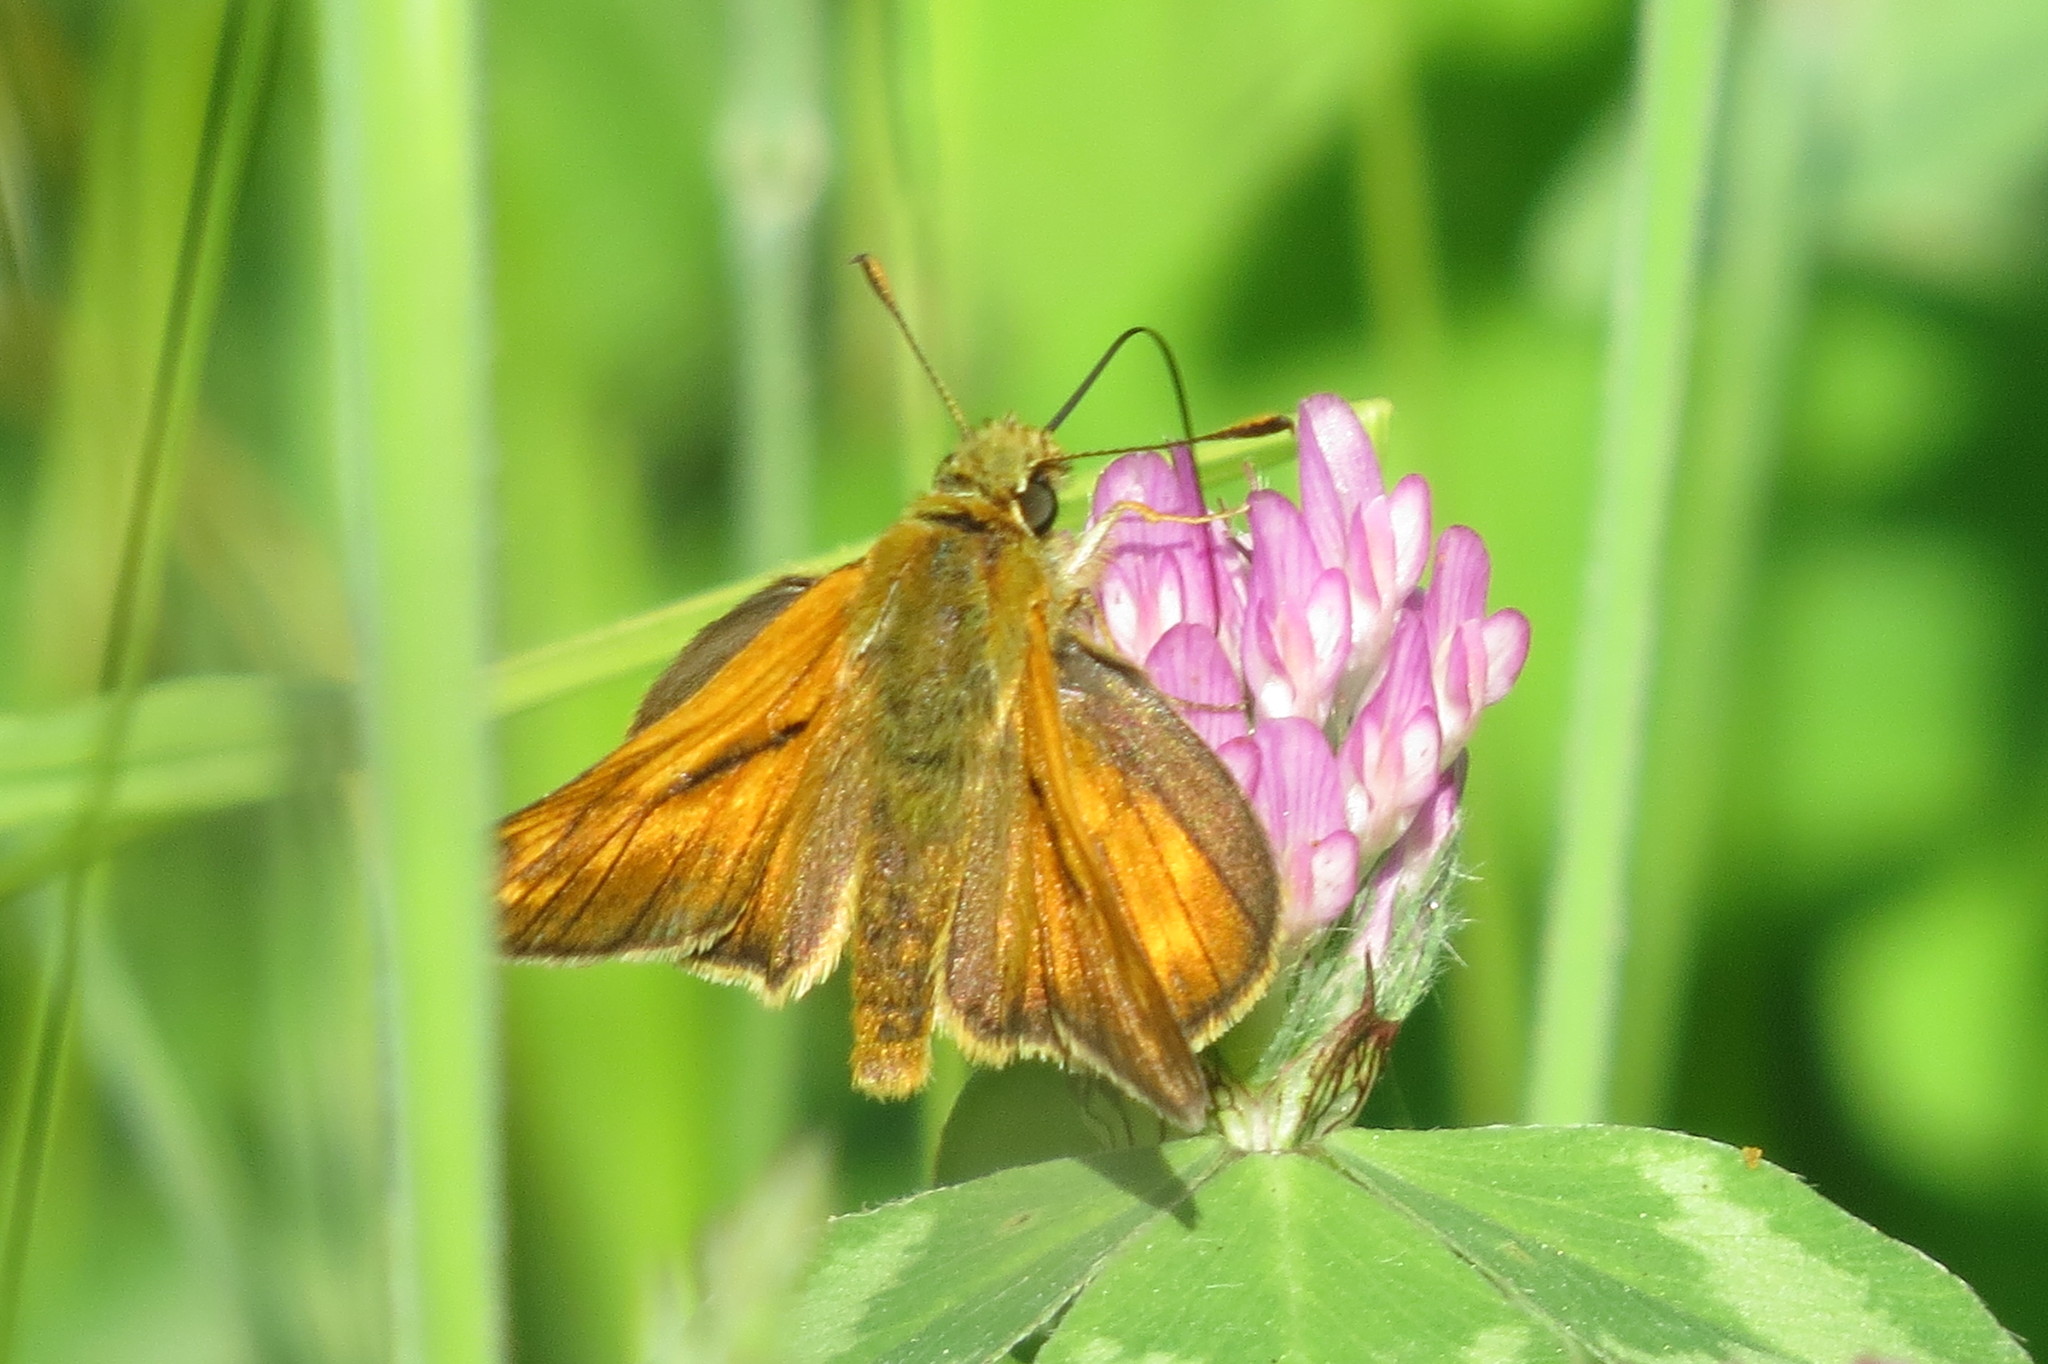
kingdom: Animalia
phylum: Arthropoda
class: Insecta
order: Lepidoptera
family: Hesperiidae
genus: Ochlodes
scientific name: Ochlodes venata
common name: Large skipper
